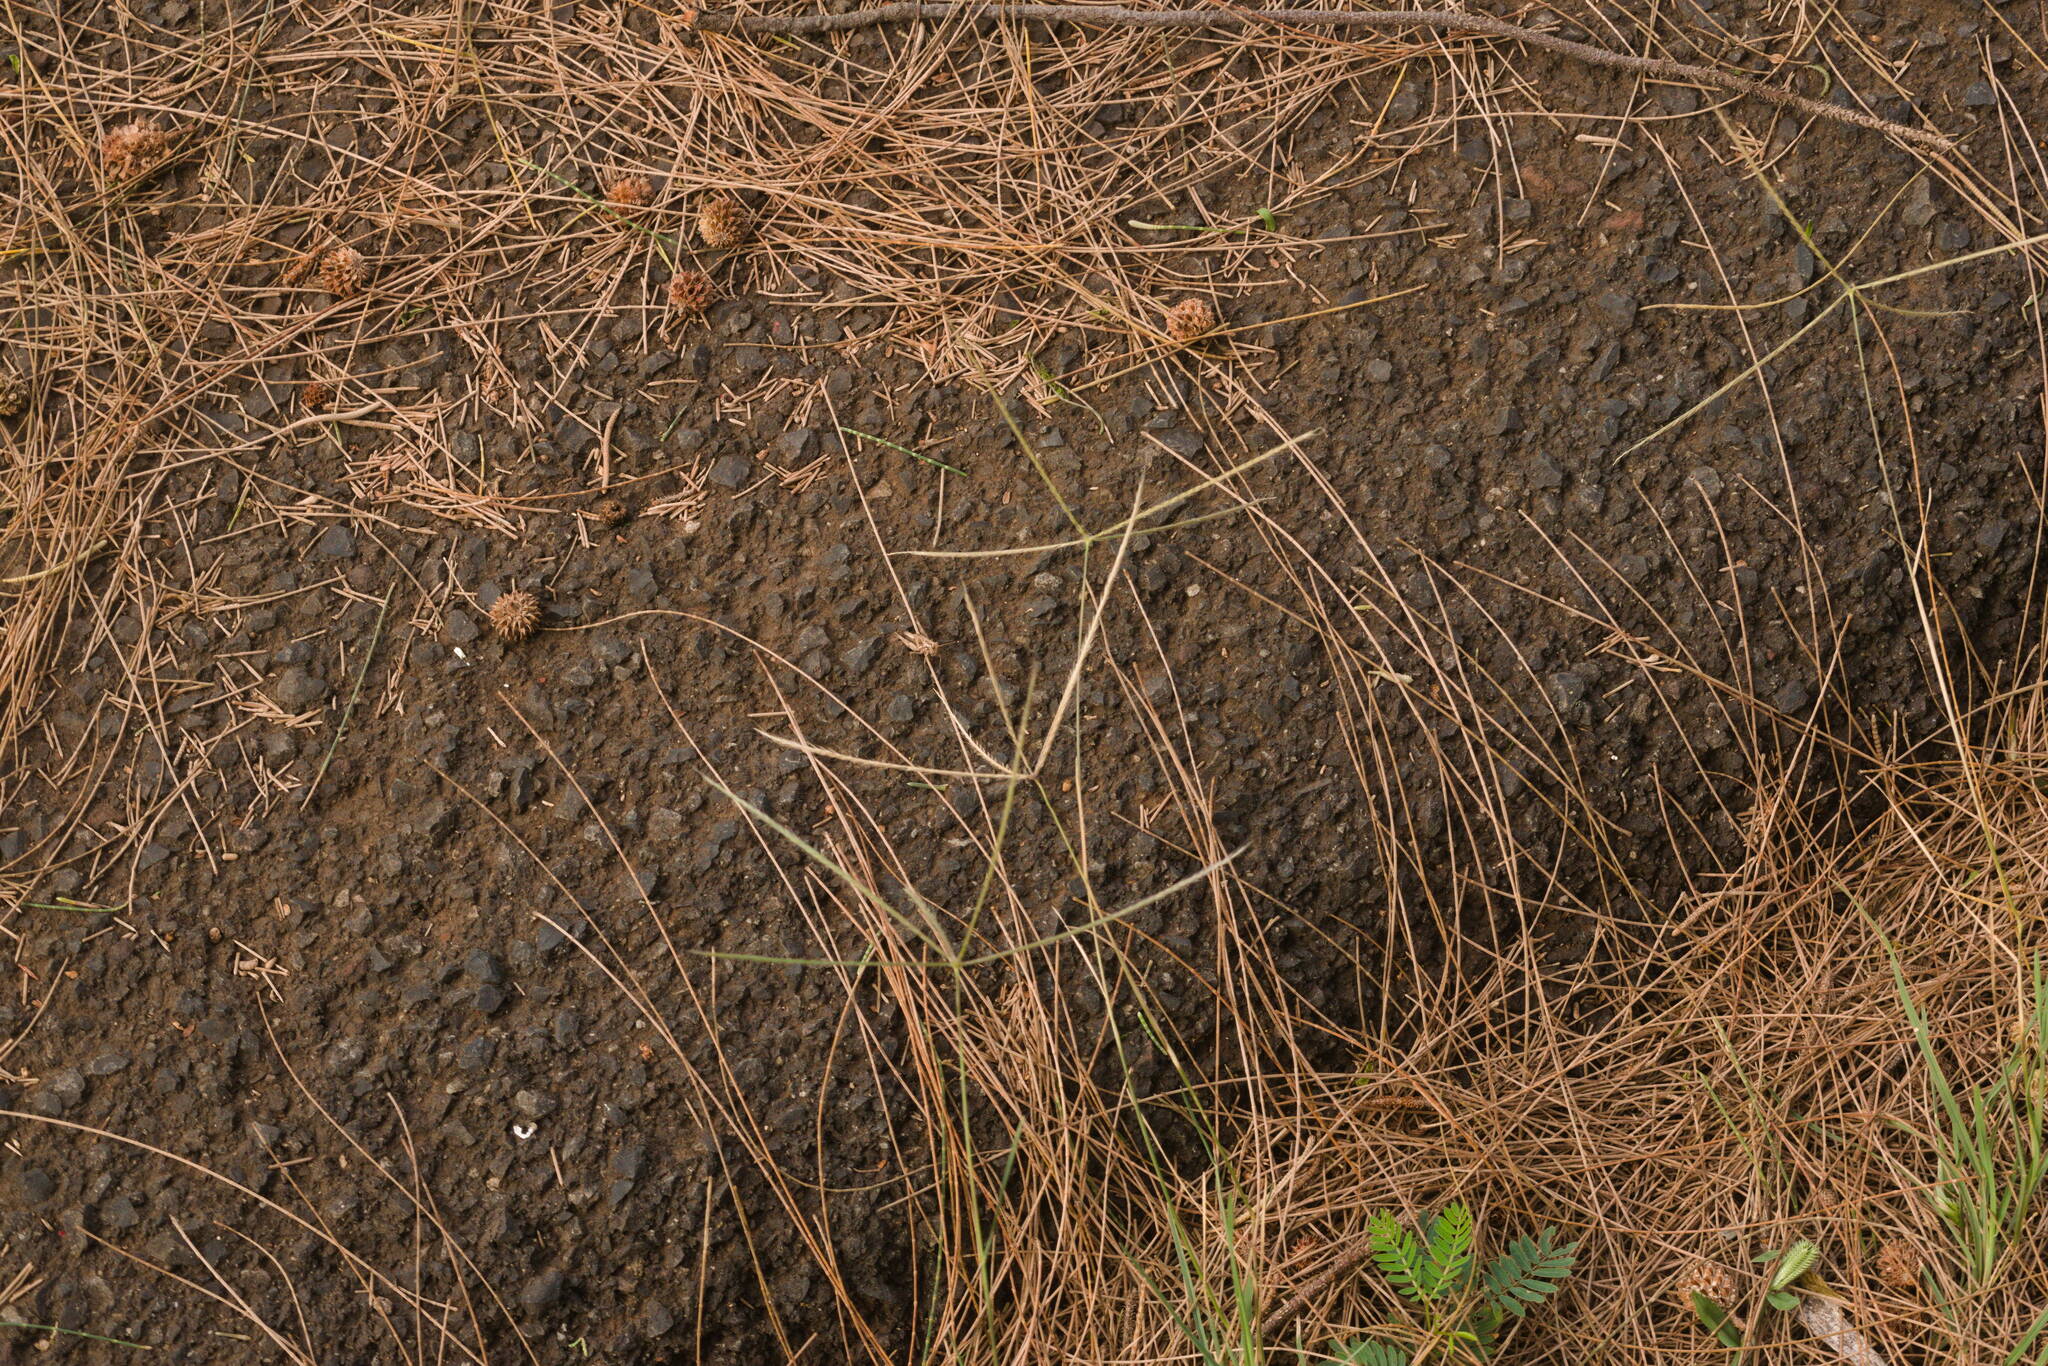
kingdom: Plantae
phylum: Tracheophyta
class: Liliopsida
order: Poales
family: Poaceae
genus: Chloris
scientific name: Chloris divaricata
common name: Spreading windmill grass
